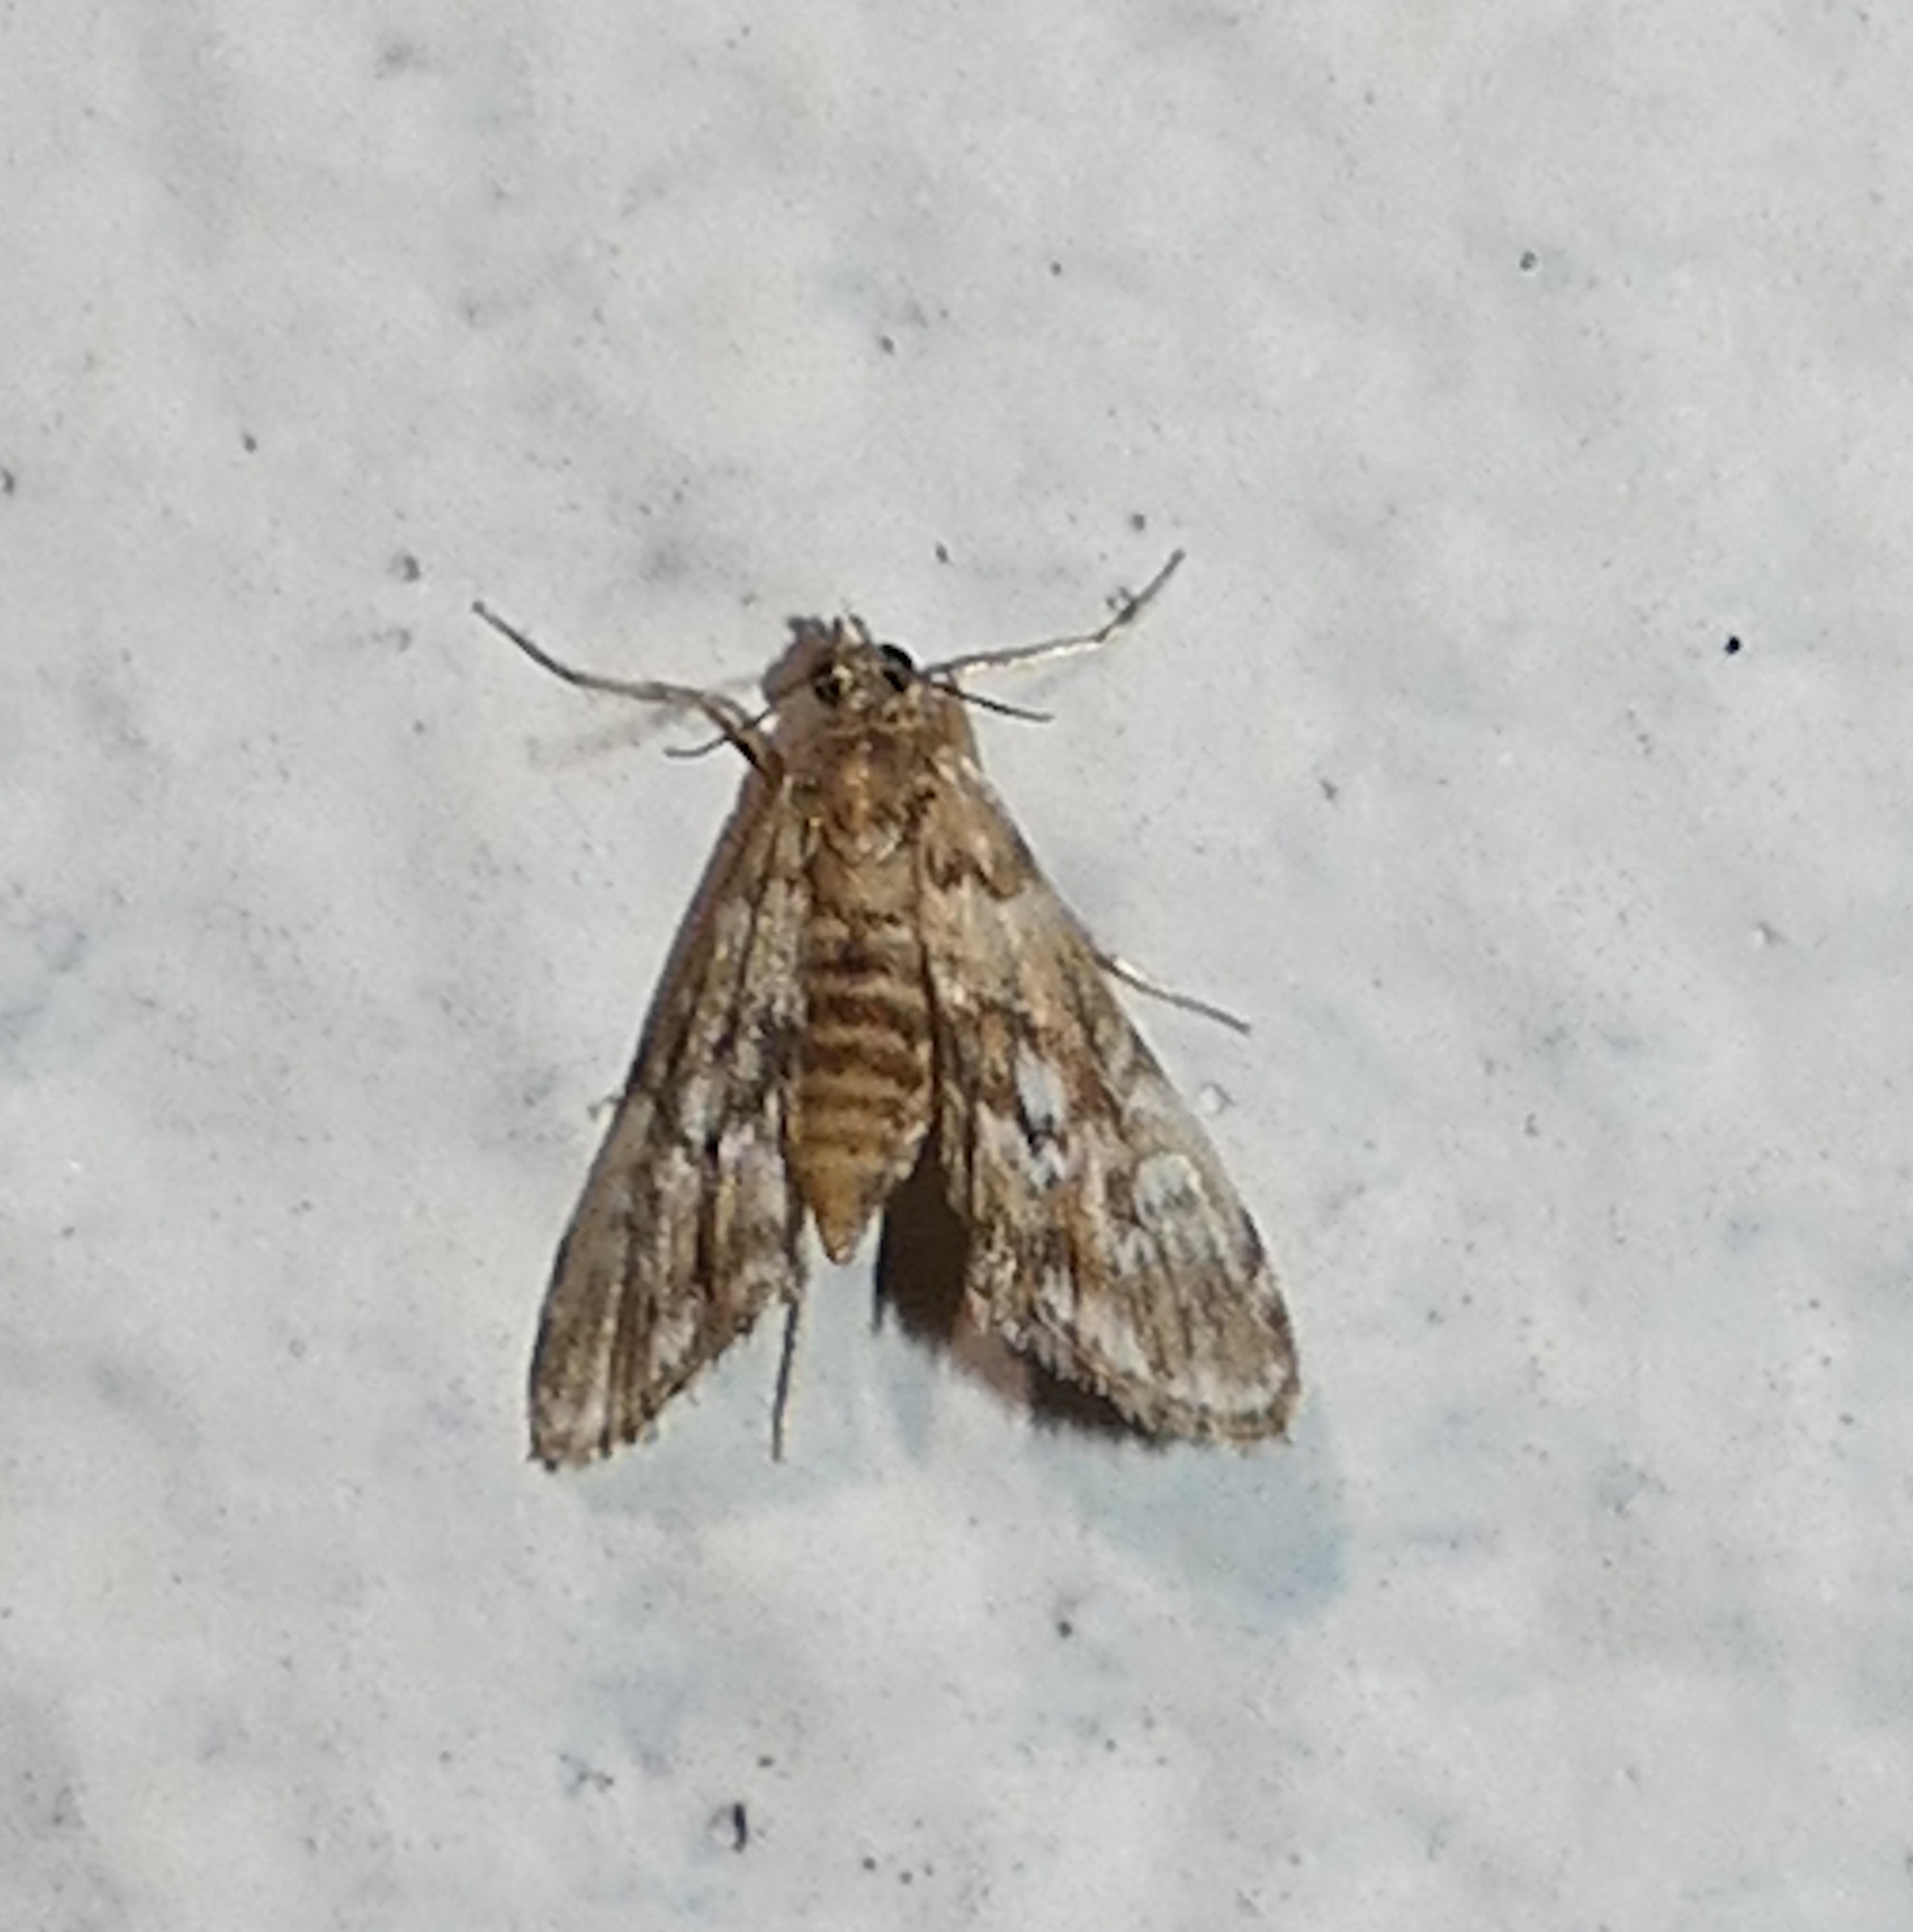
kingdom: Animalia
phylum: Arthropoda
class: Insecta
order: Lepidoptera
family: Crambidae
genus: Elophila
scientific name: Elophila obliteralis
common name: Waterlily leafcutter moth
